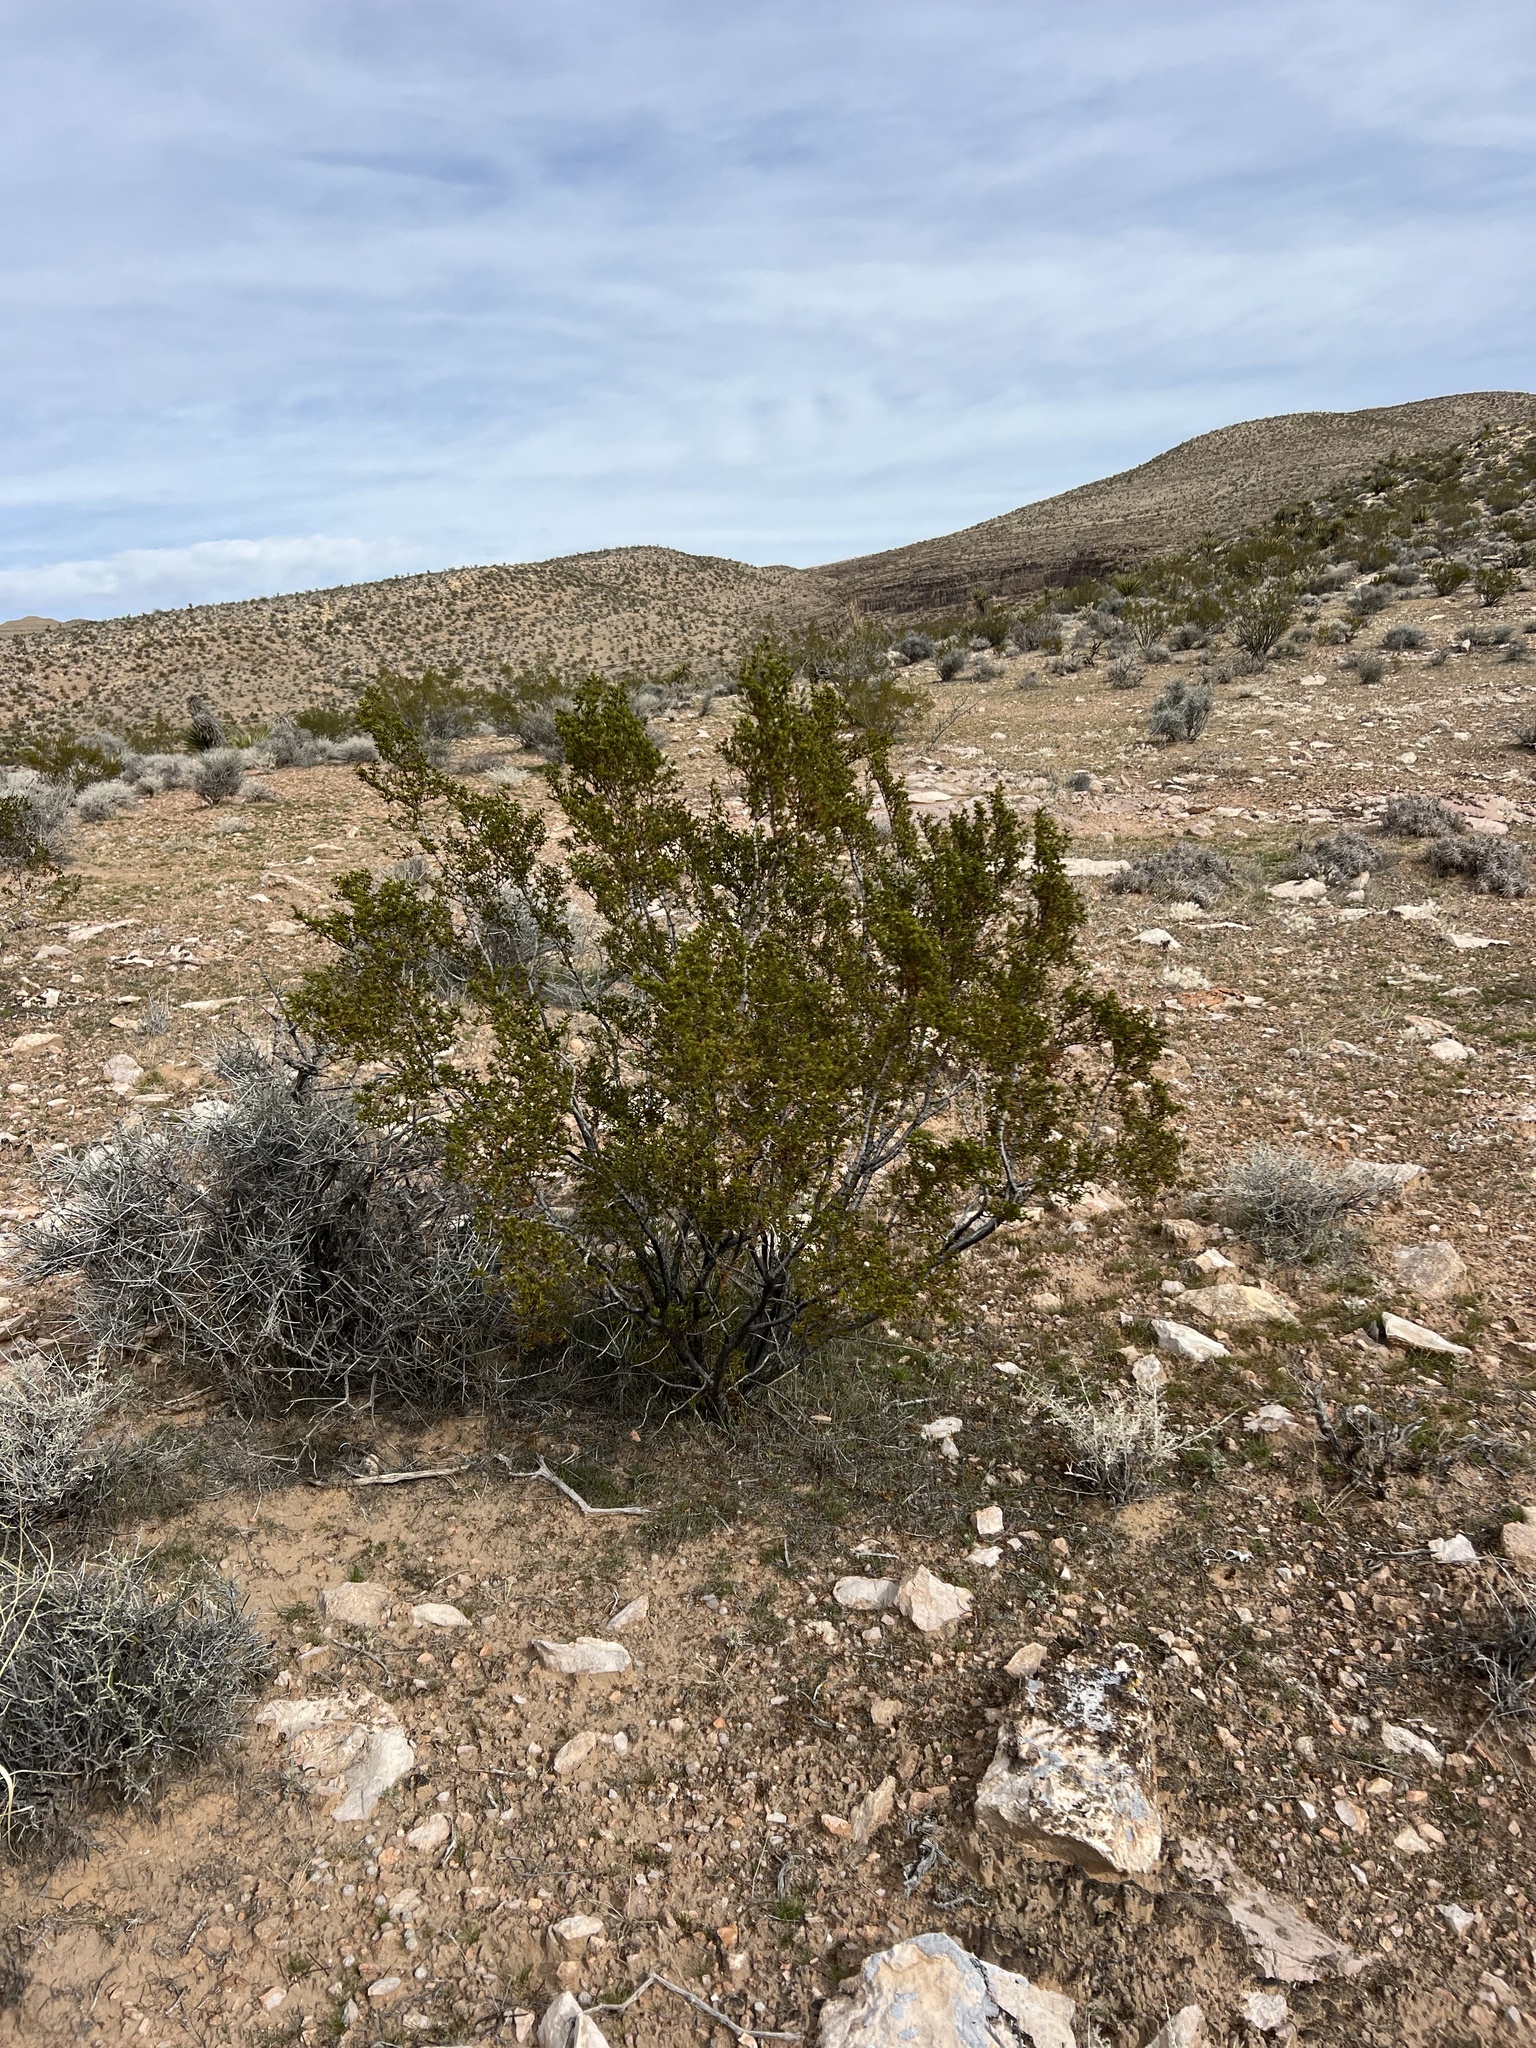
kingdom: Plantae
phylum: Tracheophyta
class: Magnoliopsida
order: Zygophyllales
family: Zygophyllaceae
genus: Larrea
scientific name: Larrea tridentata
